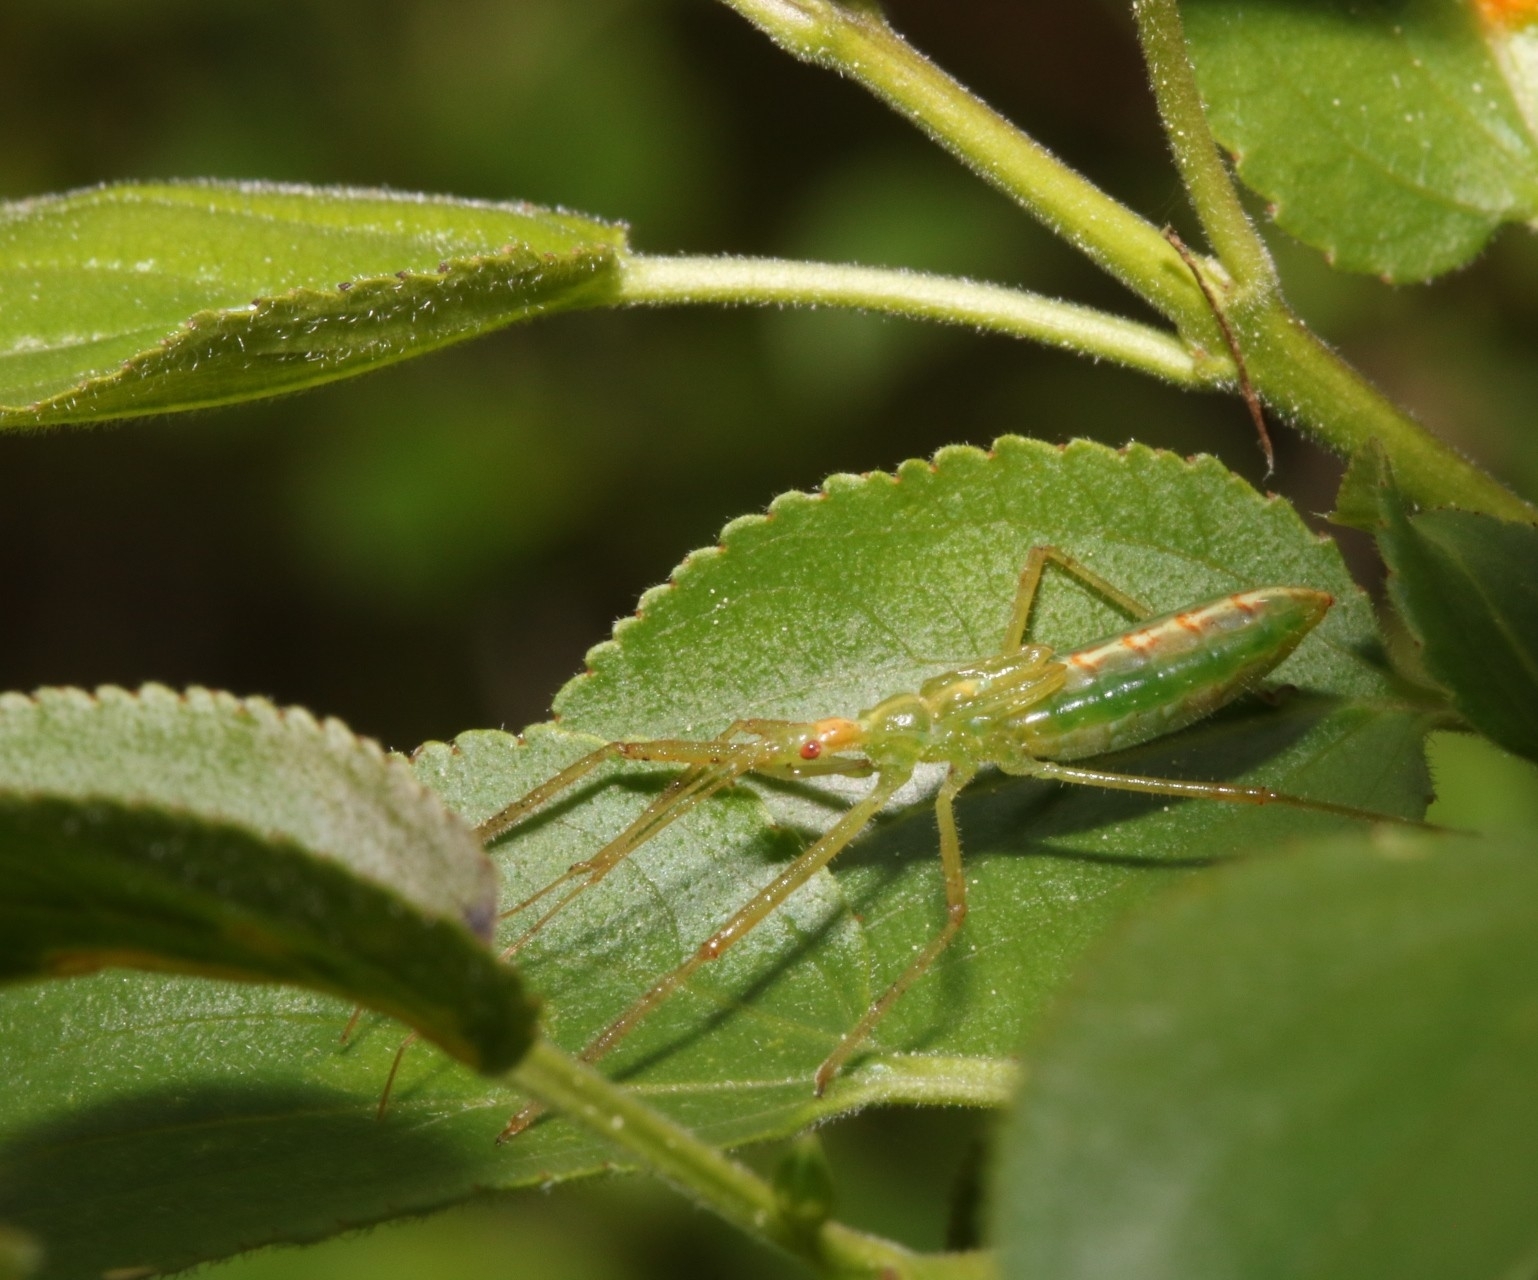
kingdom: Animalia
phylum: Arthropoda
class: Insecta
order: Hemiptera
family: Reduviidae
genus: Zelus
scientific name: Zelus luridus
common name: Pale green assassin bug
